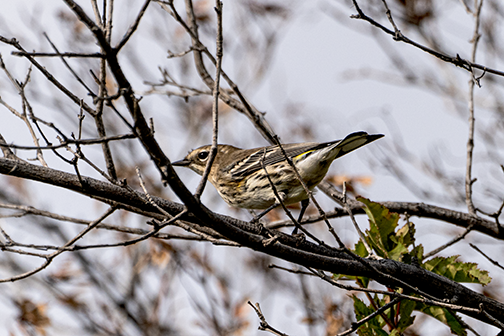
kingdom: Animalia
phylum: Chordata
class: Aves
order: Passeriformes
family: Parulidae
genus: Setophaga
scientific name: Setophaga coronata
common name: Myrtle warbler
